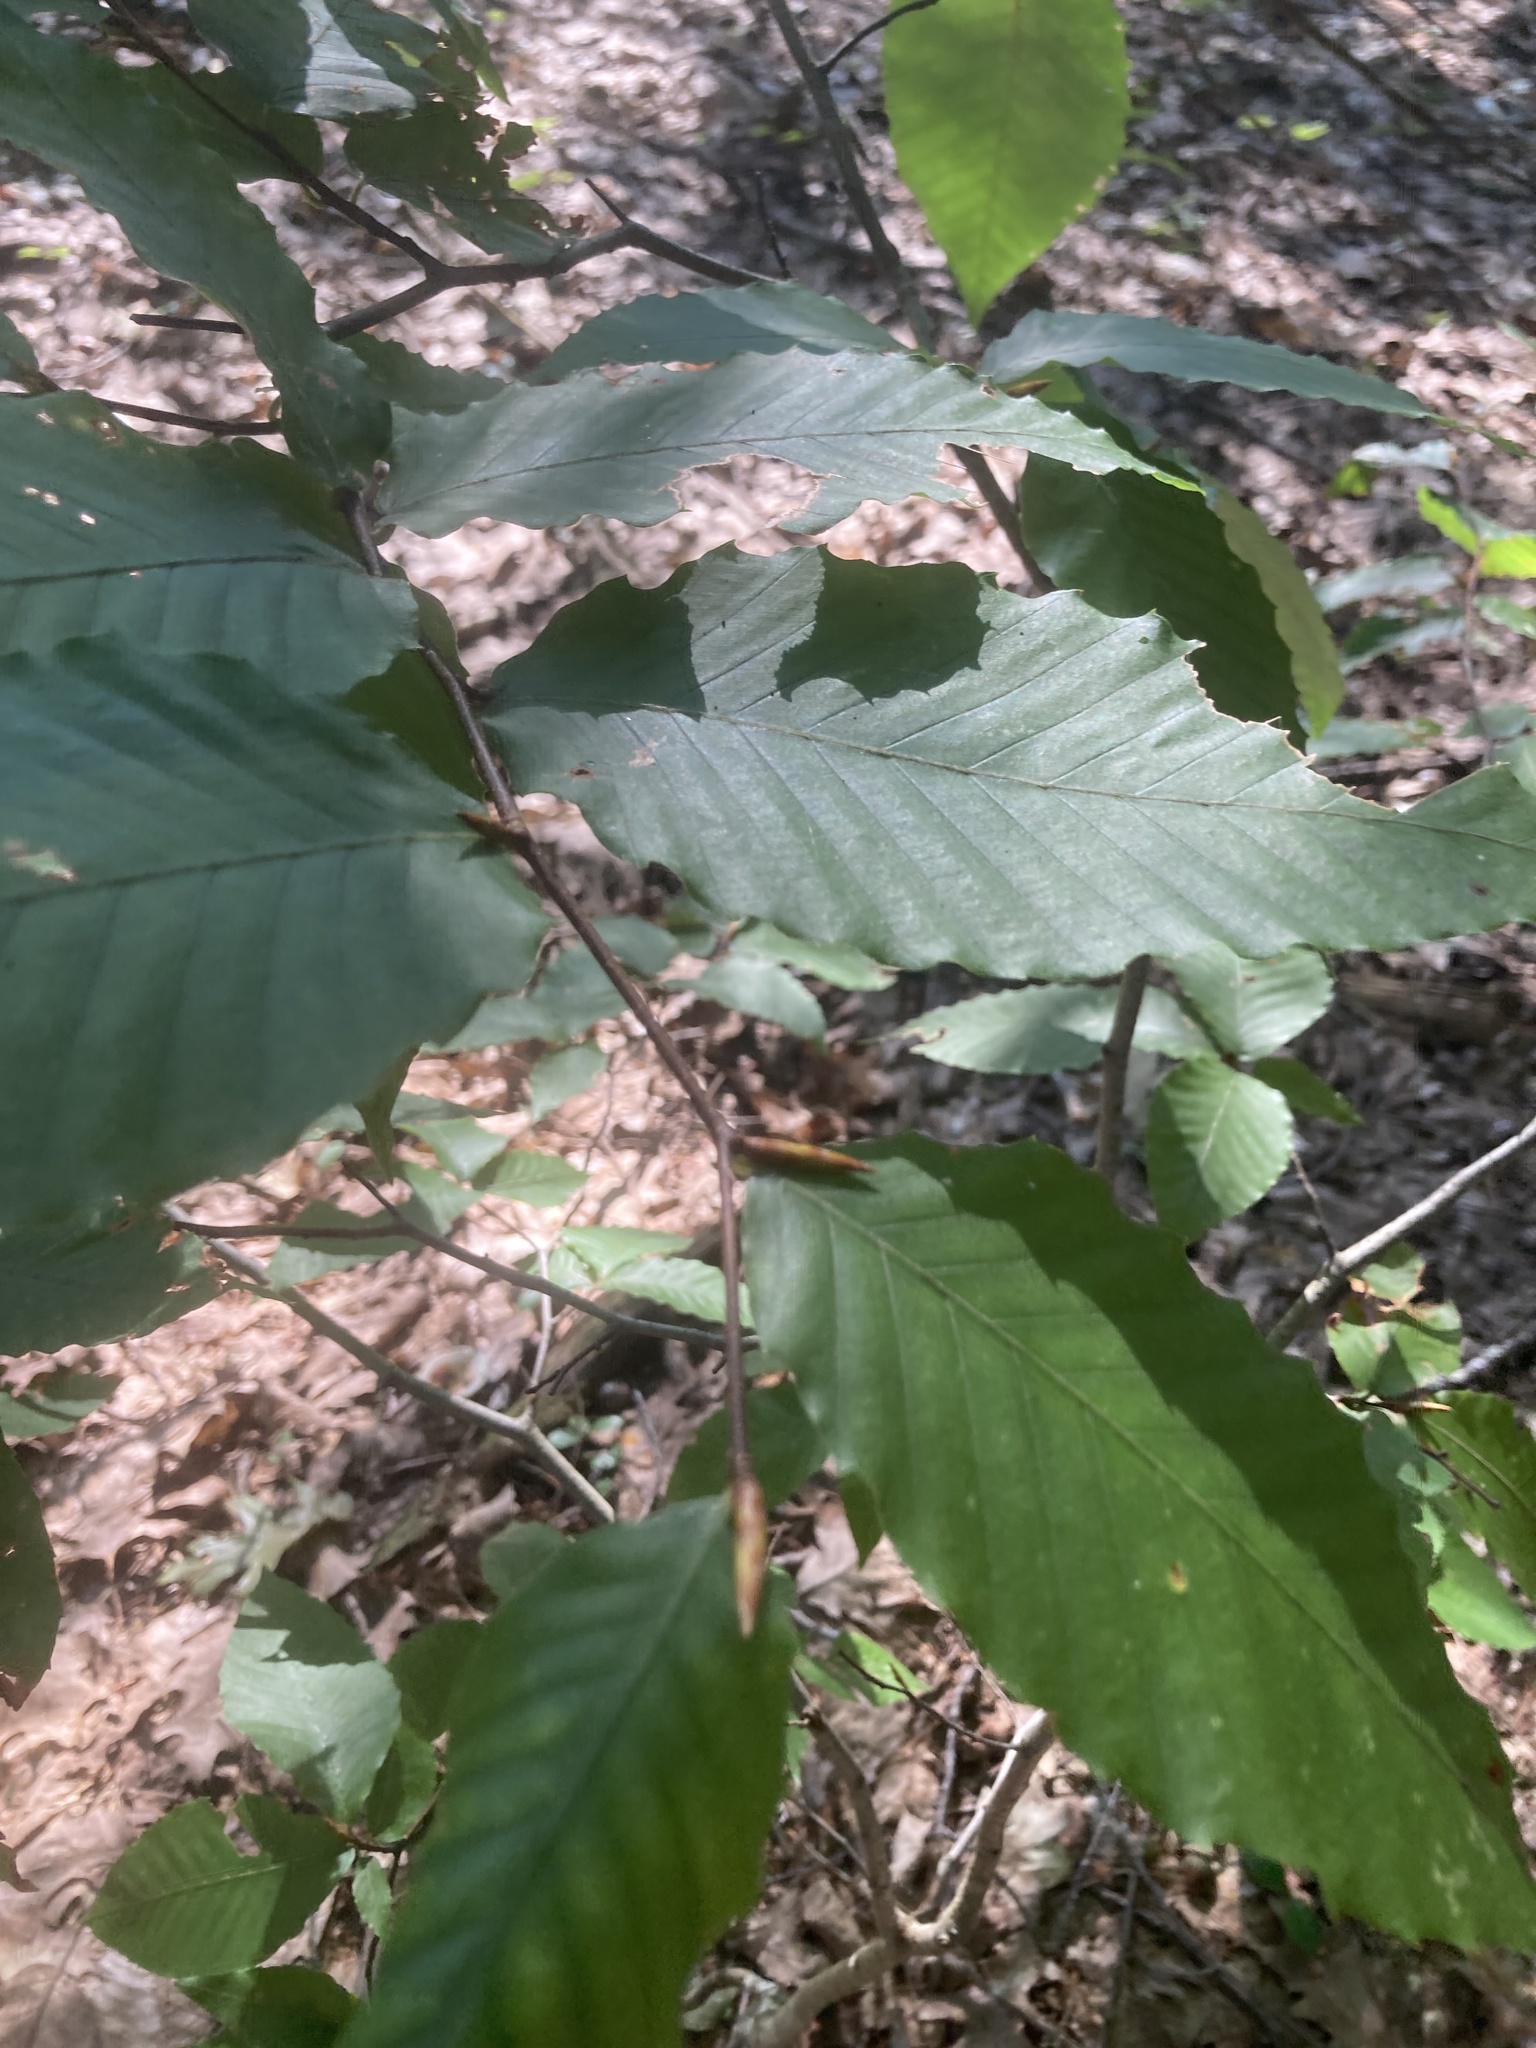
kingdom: Plantae
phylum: Tracheophyta
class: Magnoliopsida
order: Fagales
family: Fagaceae
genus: Fagus
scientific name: Fagus grandifolia
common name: American beech
